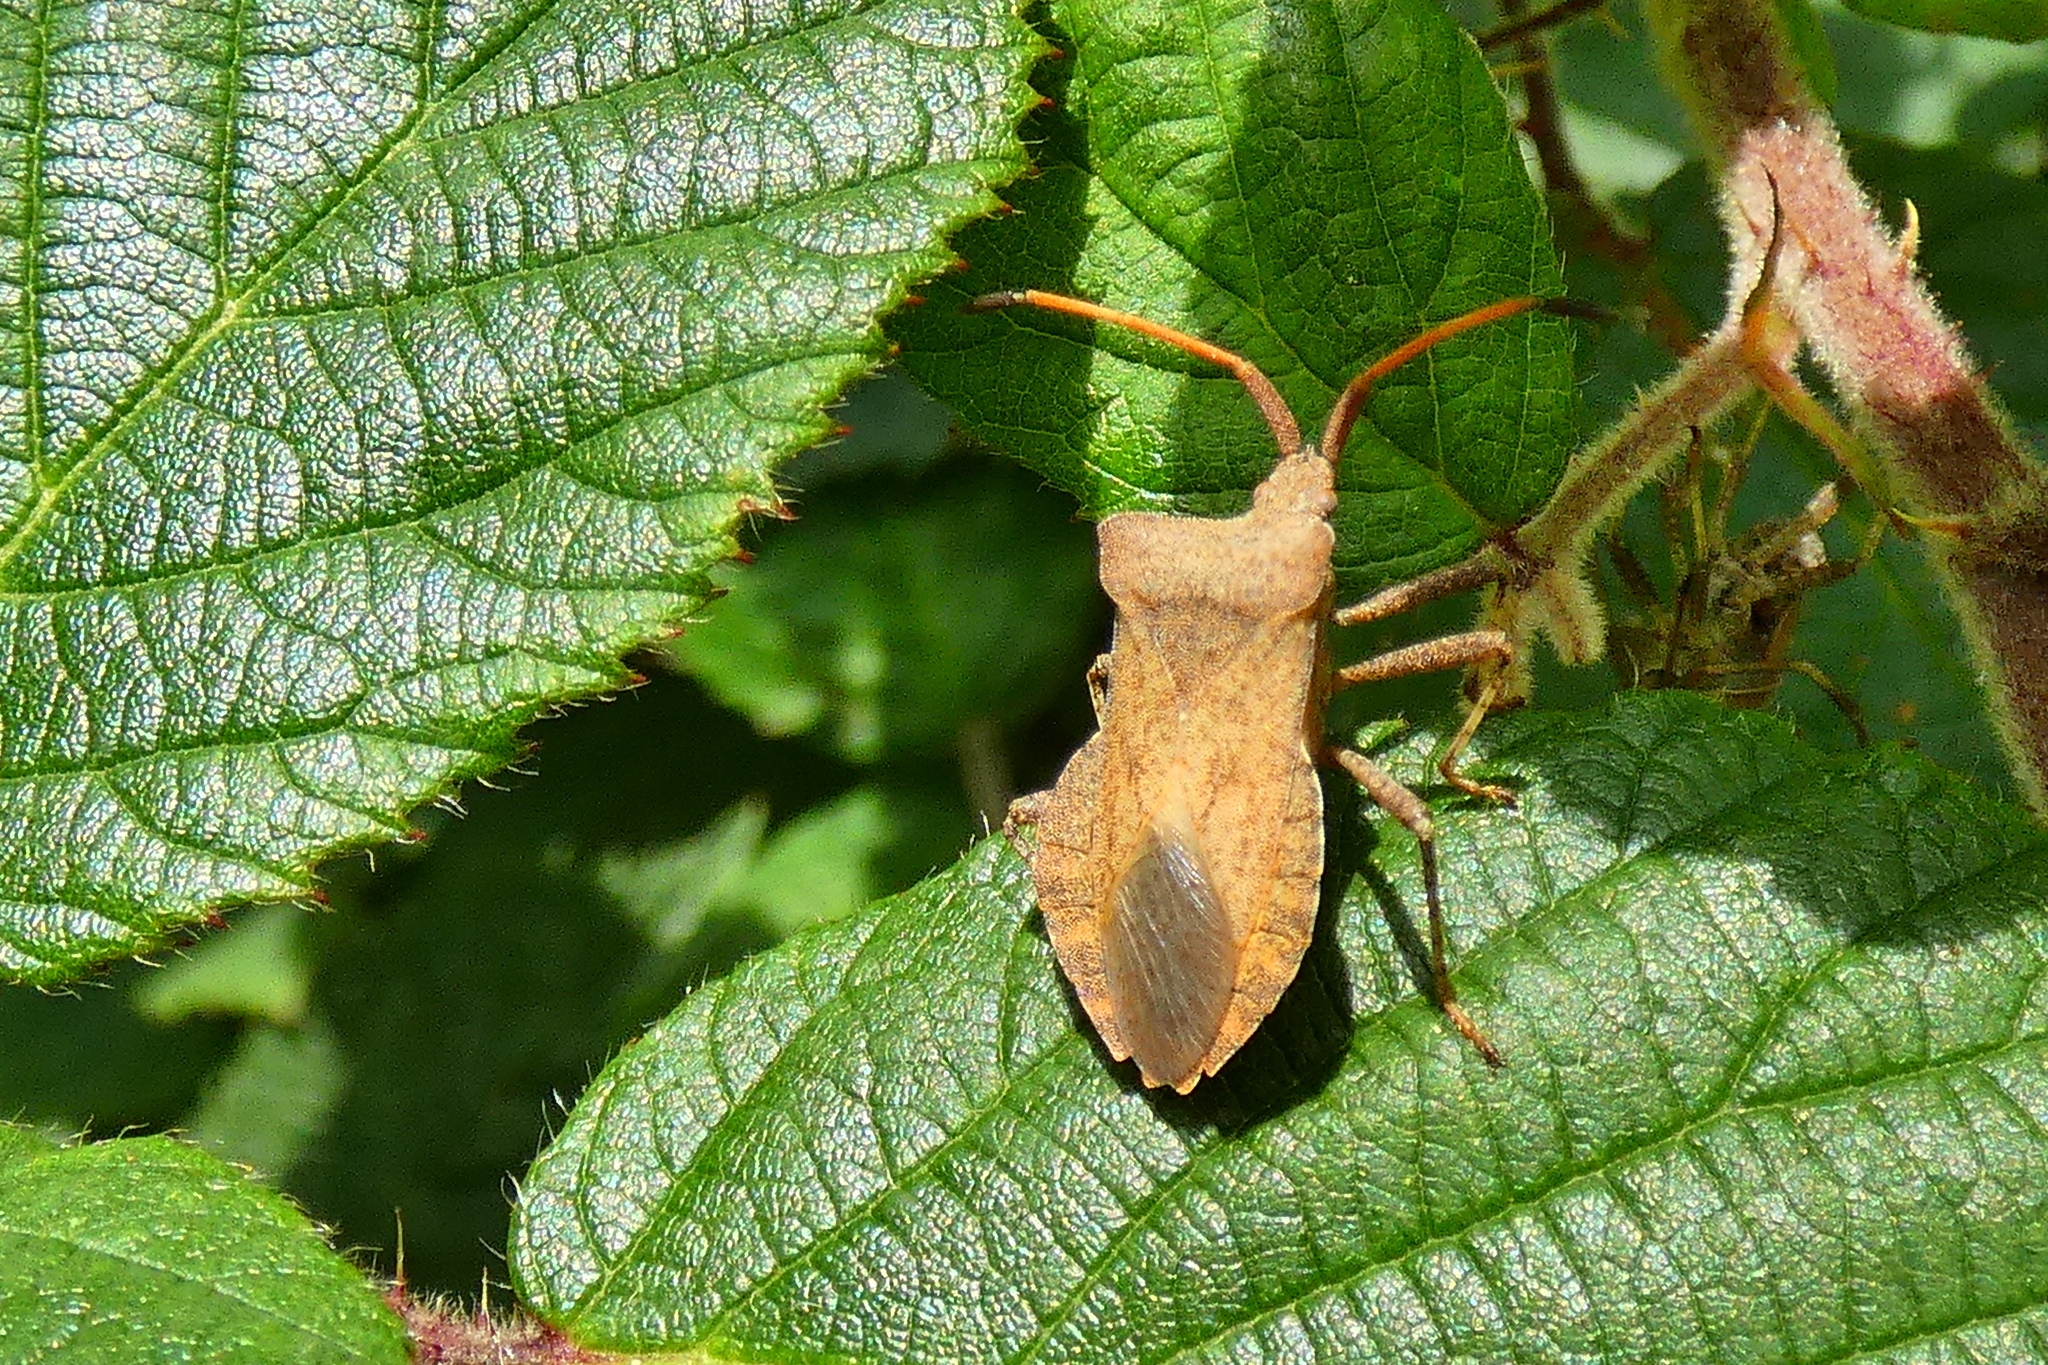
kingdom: Animalia
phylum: Arthropoda
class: Insecta
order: Hemiptera
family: Coreidae
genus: Coreus
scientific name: Coreus marginatus
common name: Dock bug
